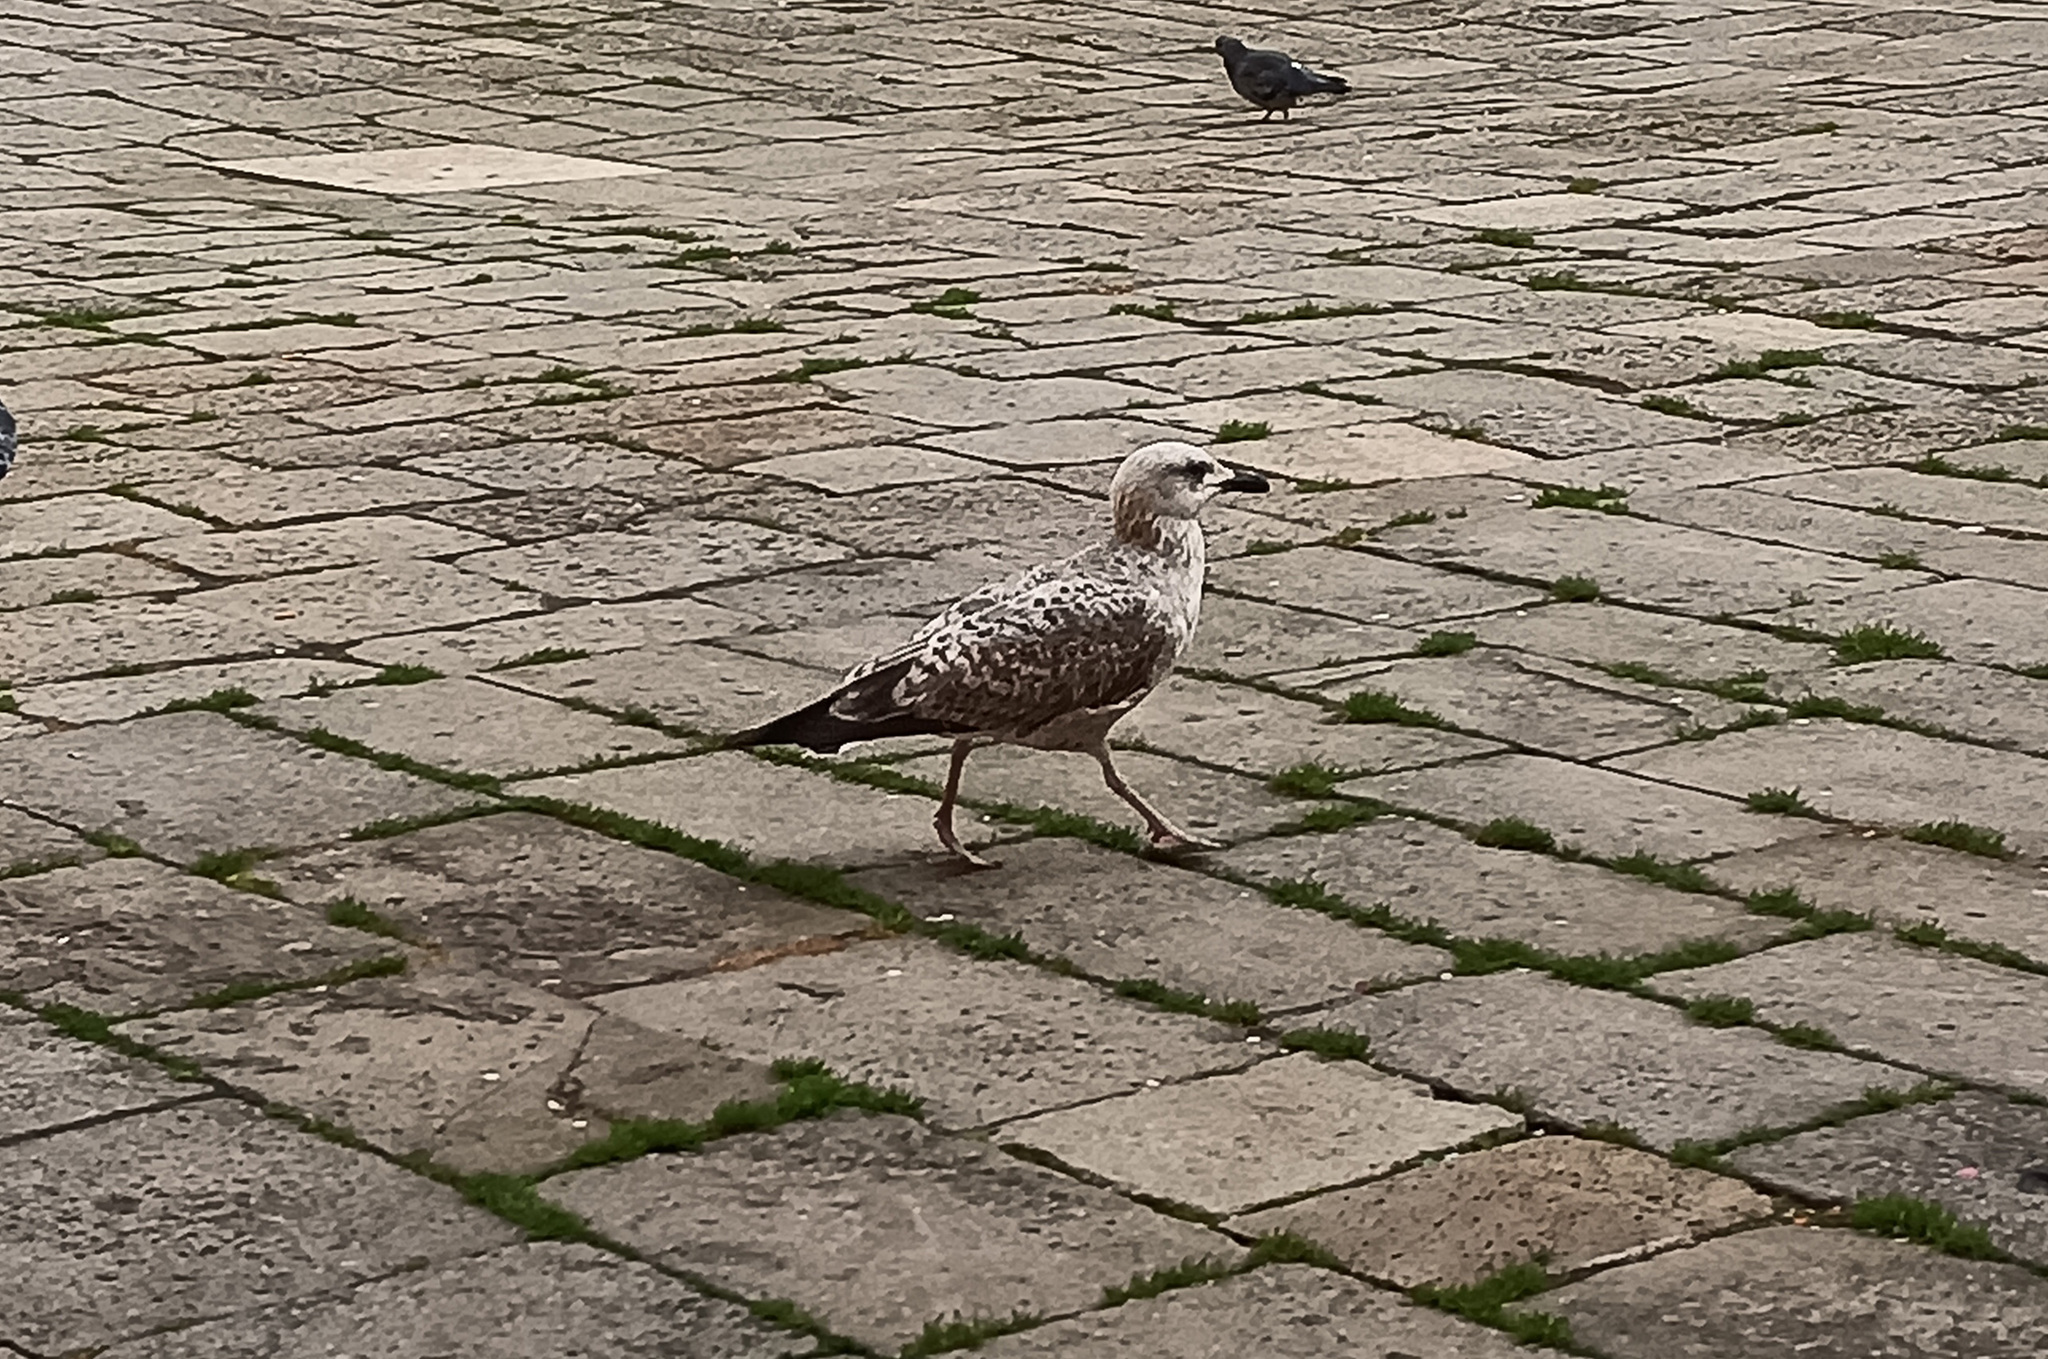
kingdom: Animalia
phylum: Chordata
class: Aves
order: Charadriiformes
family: Laridae
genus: Larus
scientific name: Larus michahellis
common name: Yellow-legged gull
